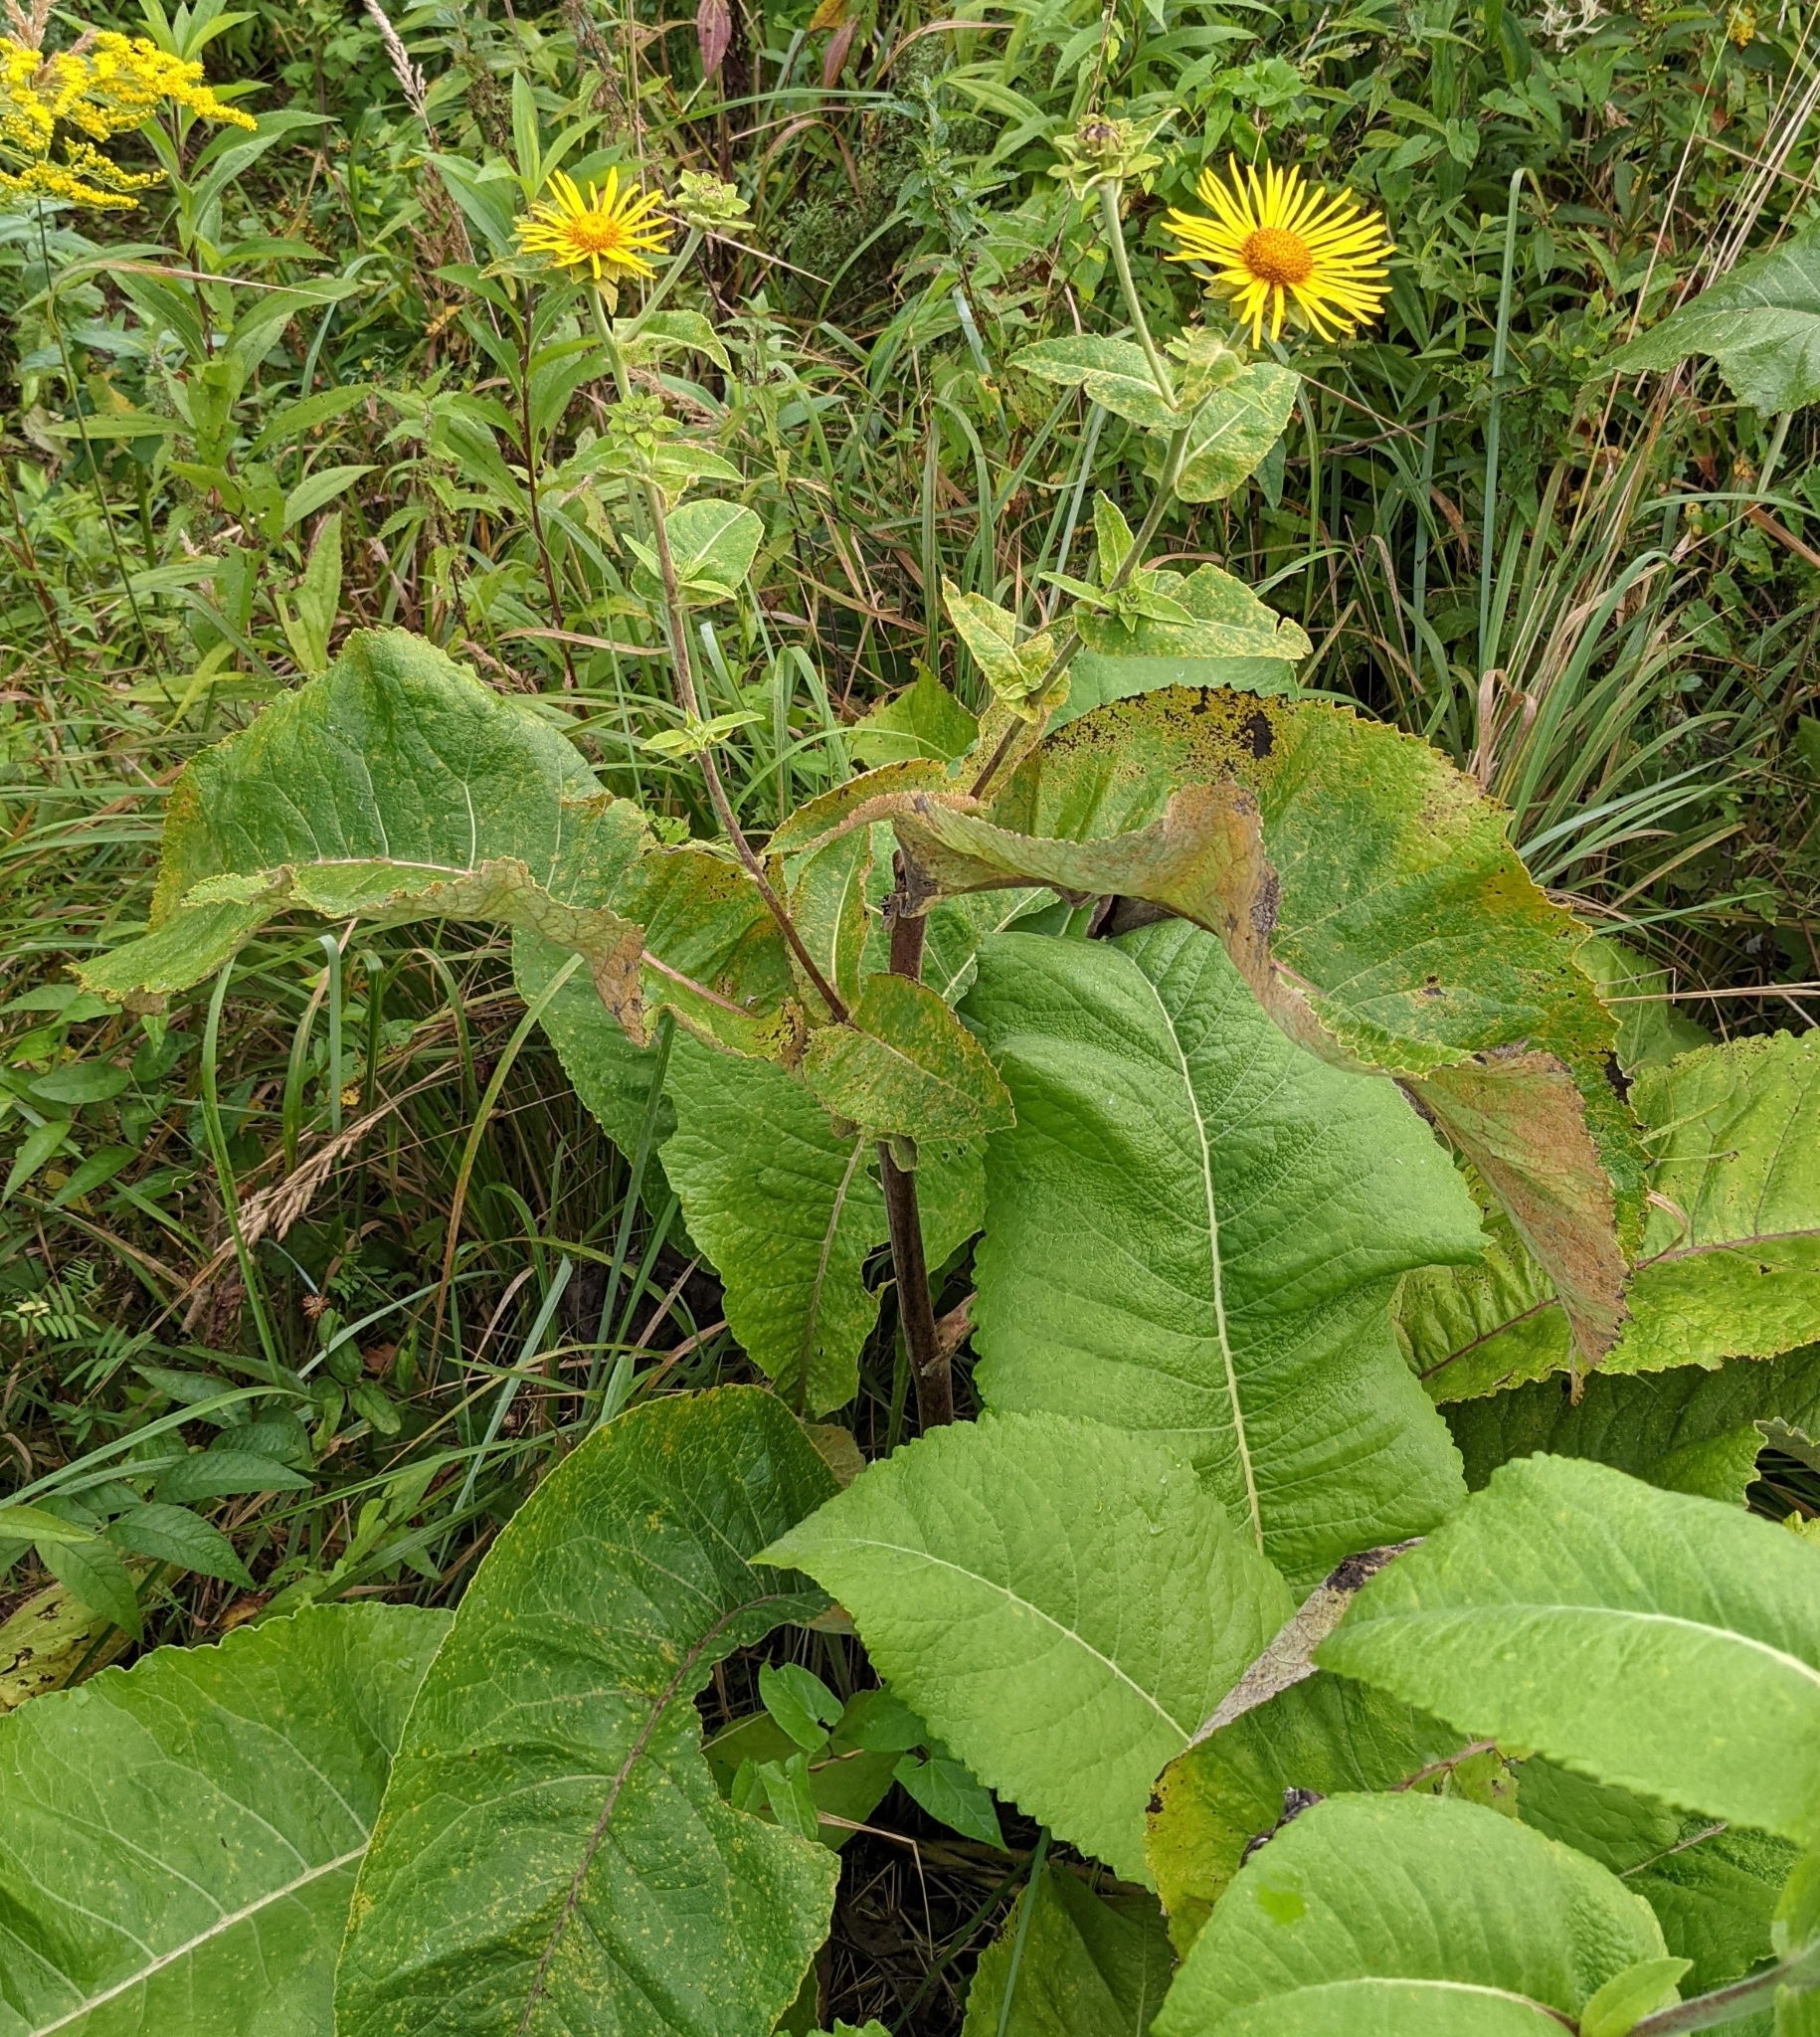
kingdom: Plantae
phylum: Tracheophyta
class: Magnoliopsida
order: Asterales
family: Asteraceae
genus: Inula
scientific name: Inula helenium
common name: Elecampane
